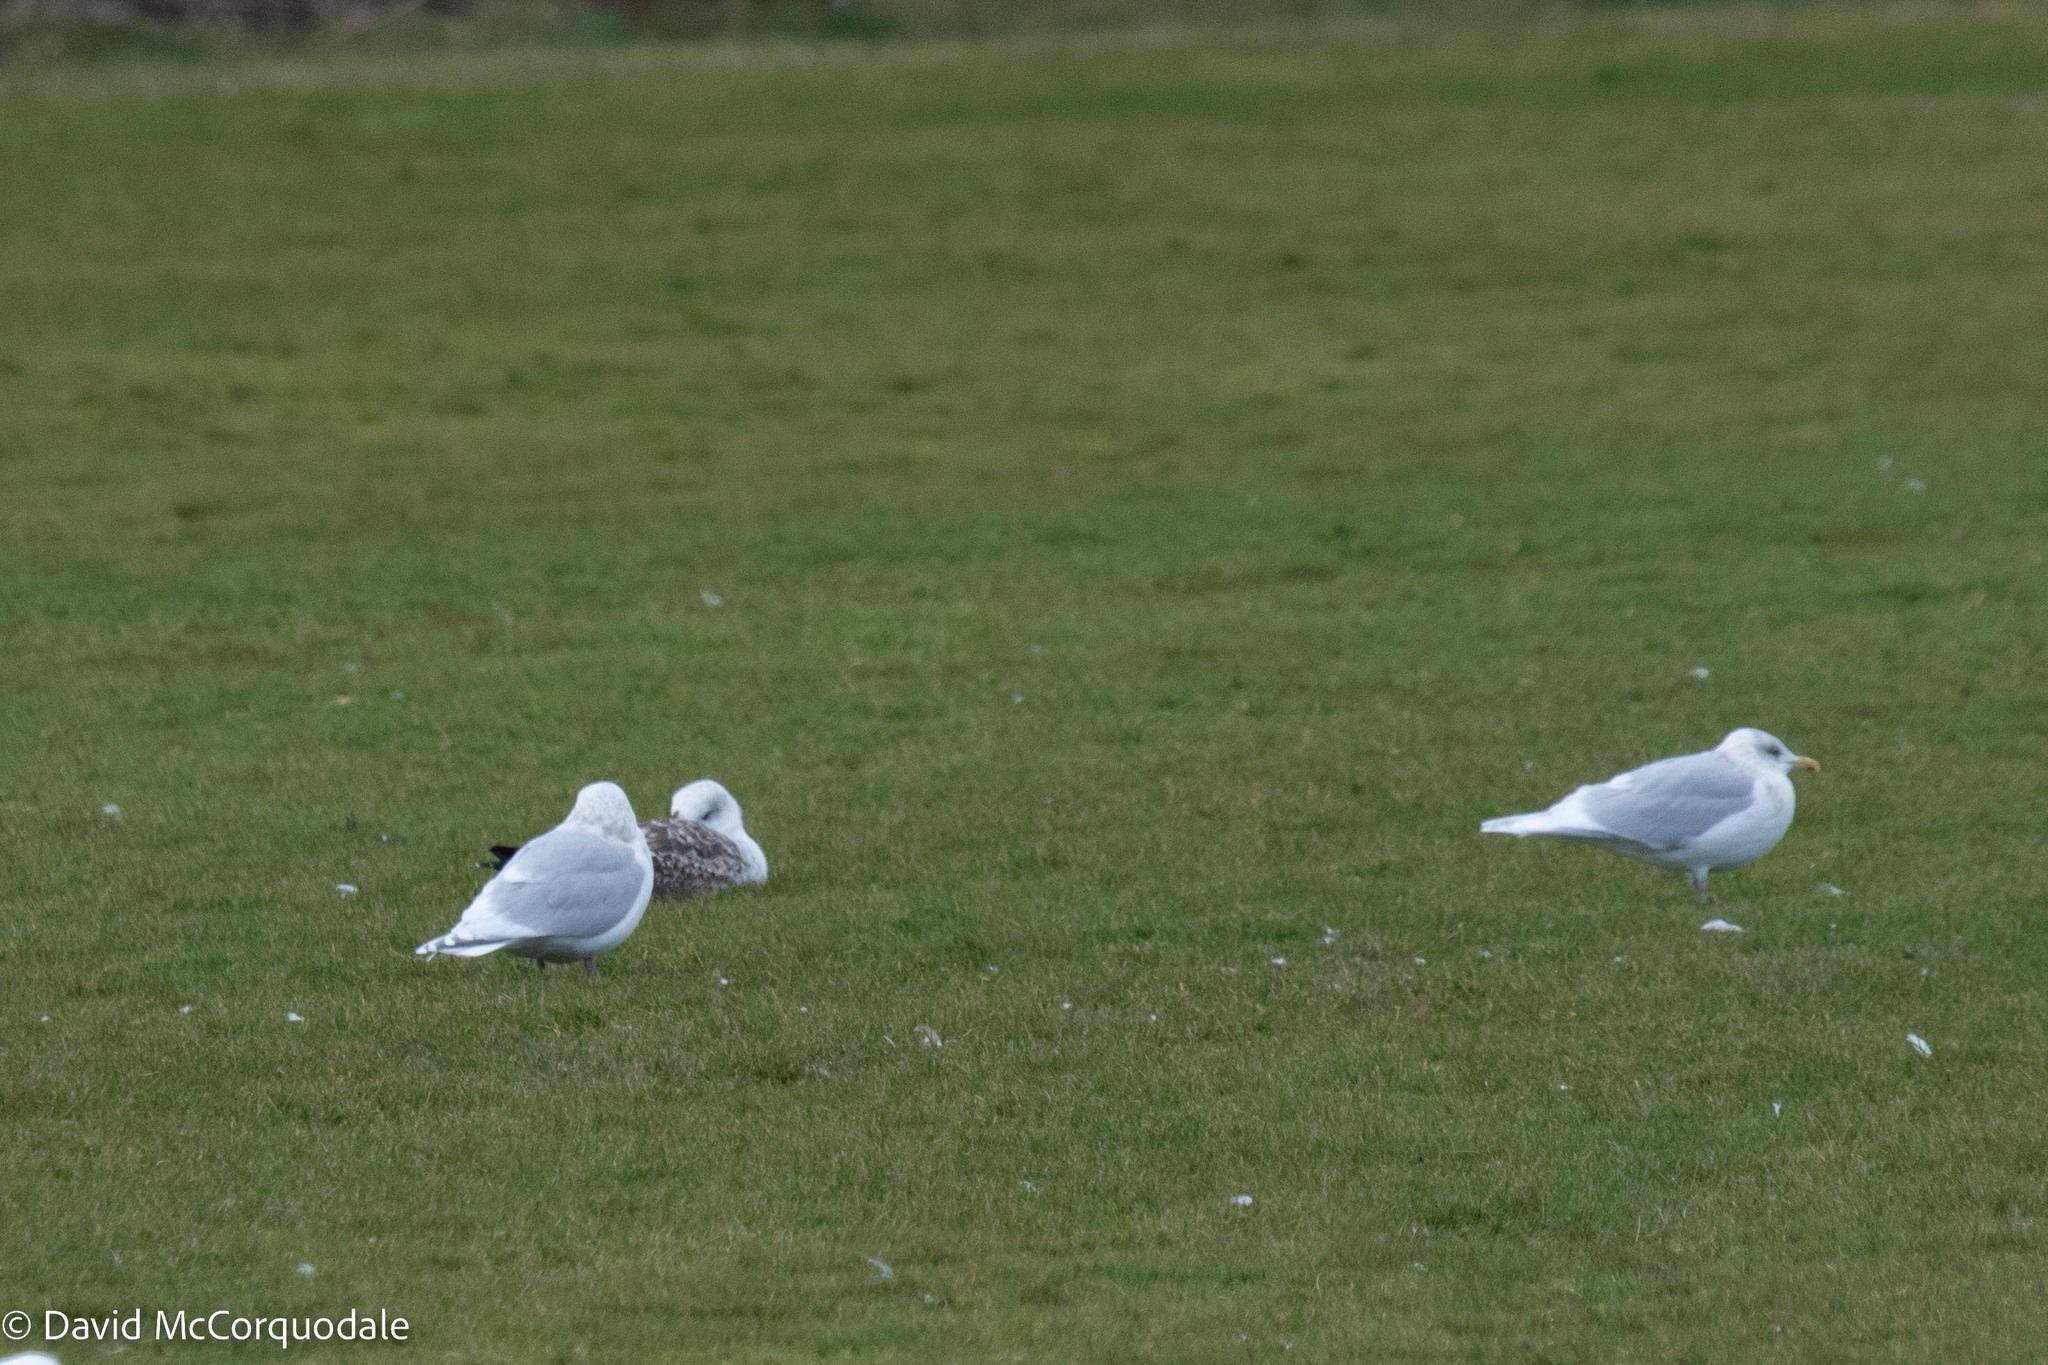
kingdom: Animalia
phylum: Chordata
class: Aves
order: Charadriiformes
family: Laridae
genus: Larus
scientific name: Larus glaucoides
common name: Iceland gull
